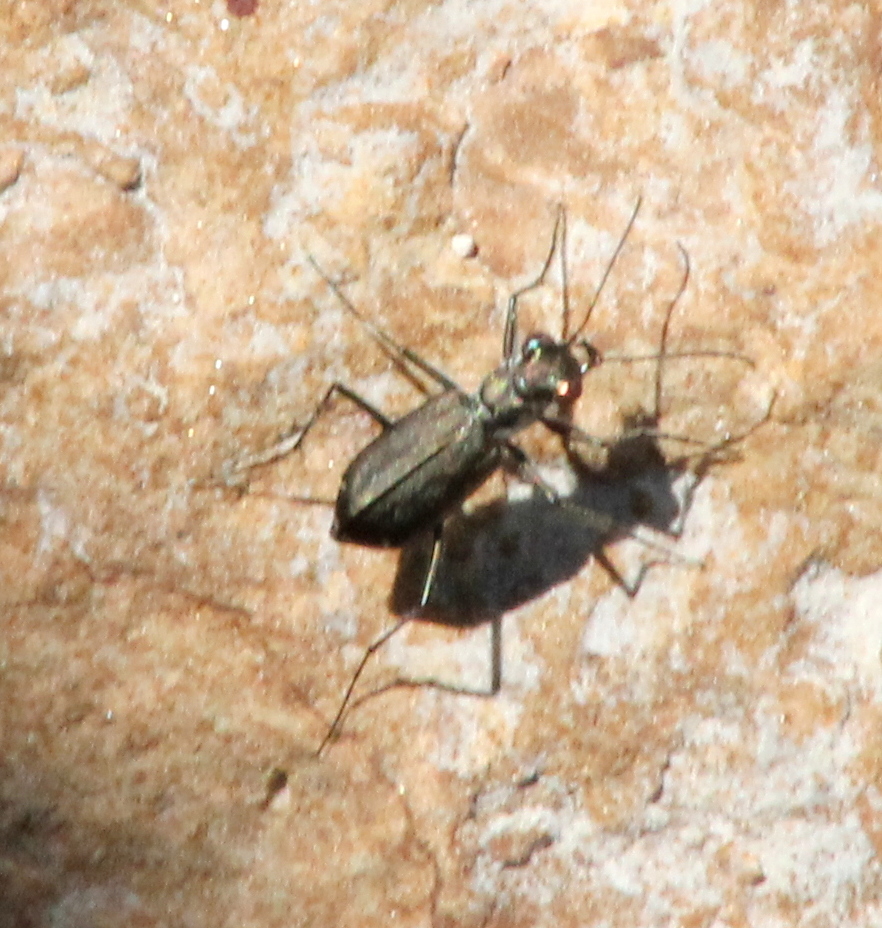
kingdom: Animalia
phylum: Arthropoda
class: Insecta
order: Coleoptera
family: Carabidae
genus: Cicindela
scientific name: Cicindela punctulata
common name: Punctured tiger beetle
